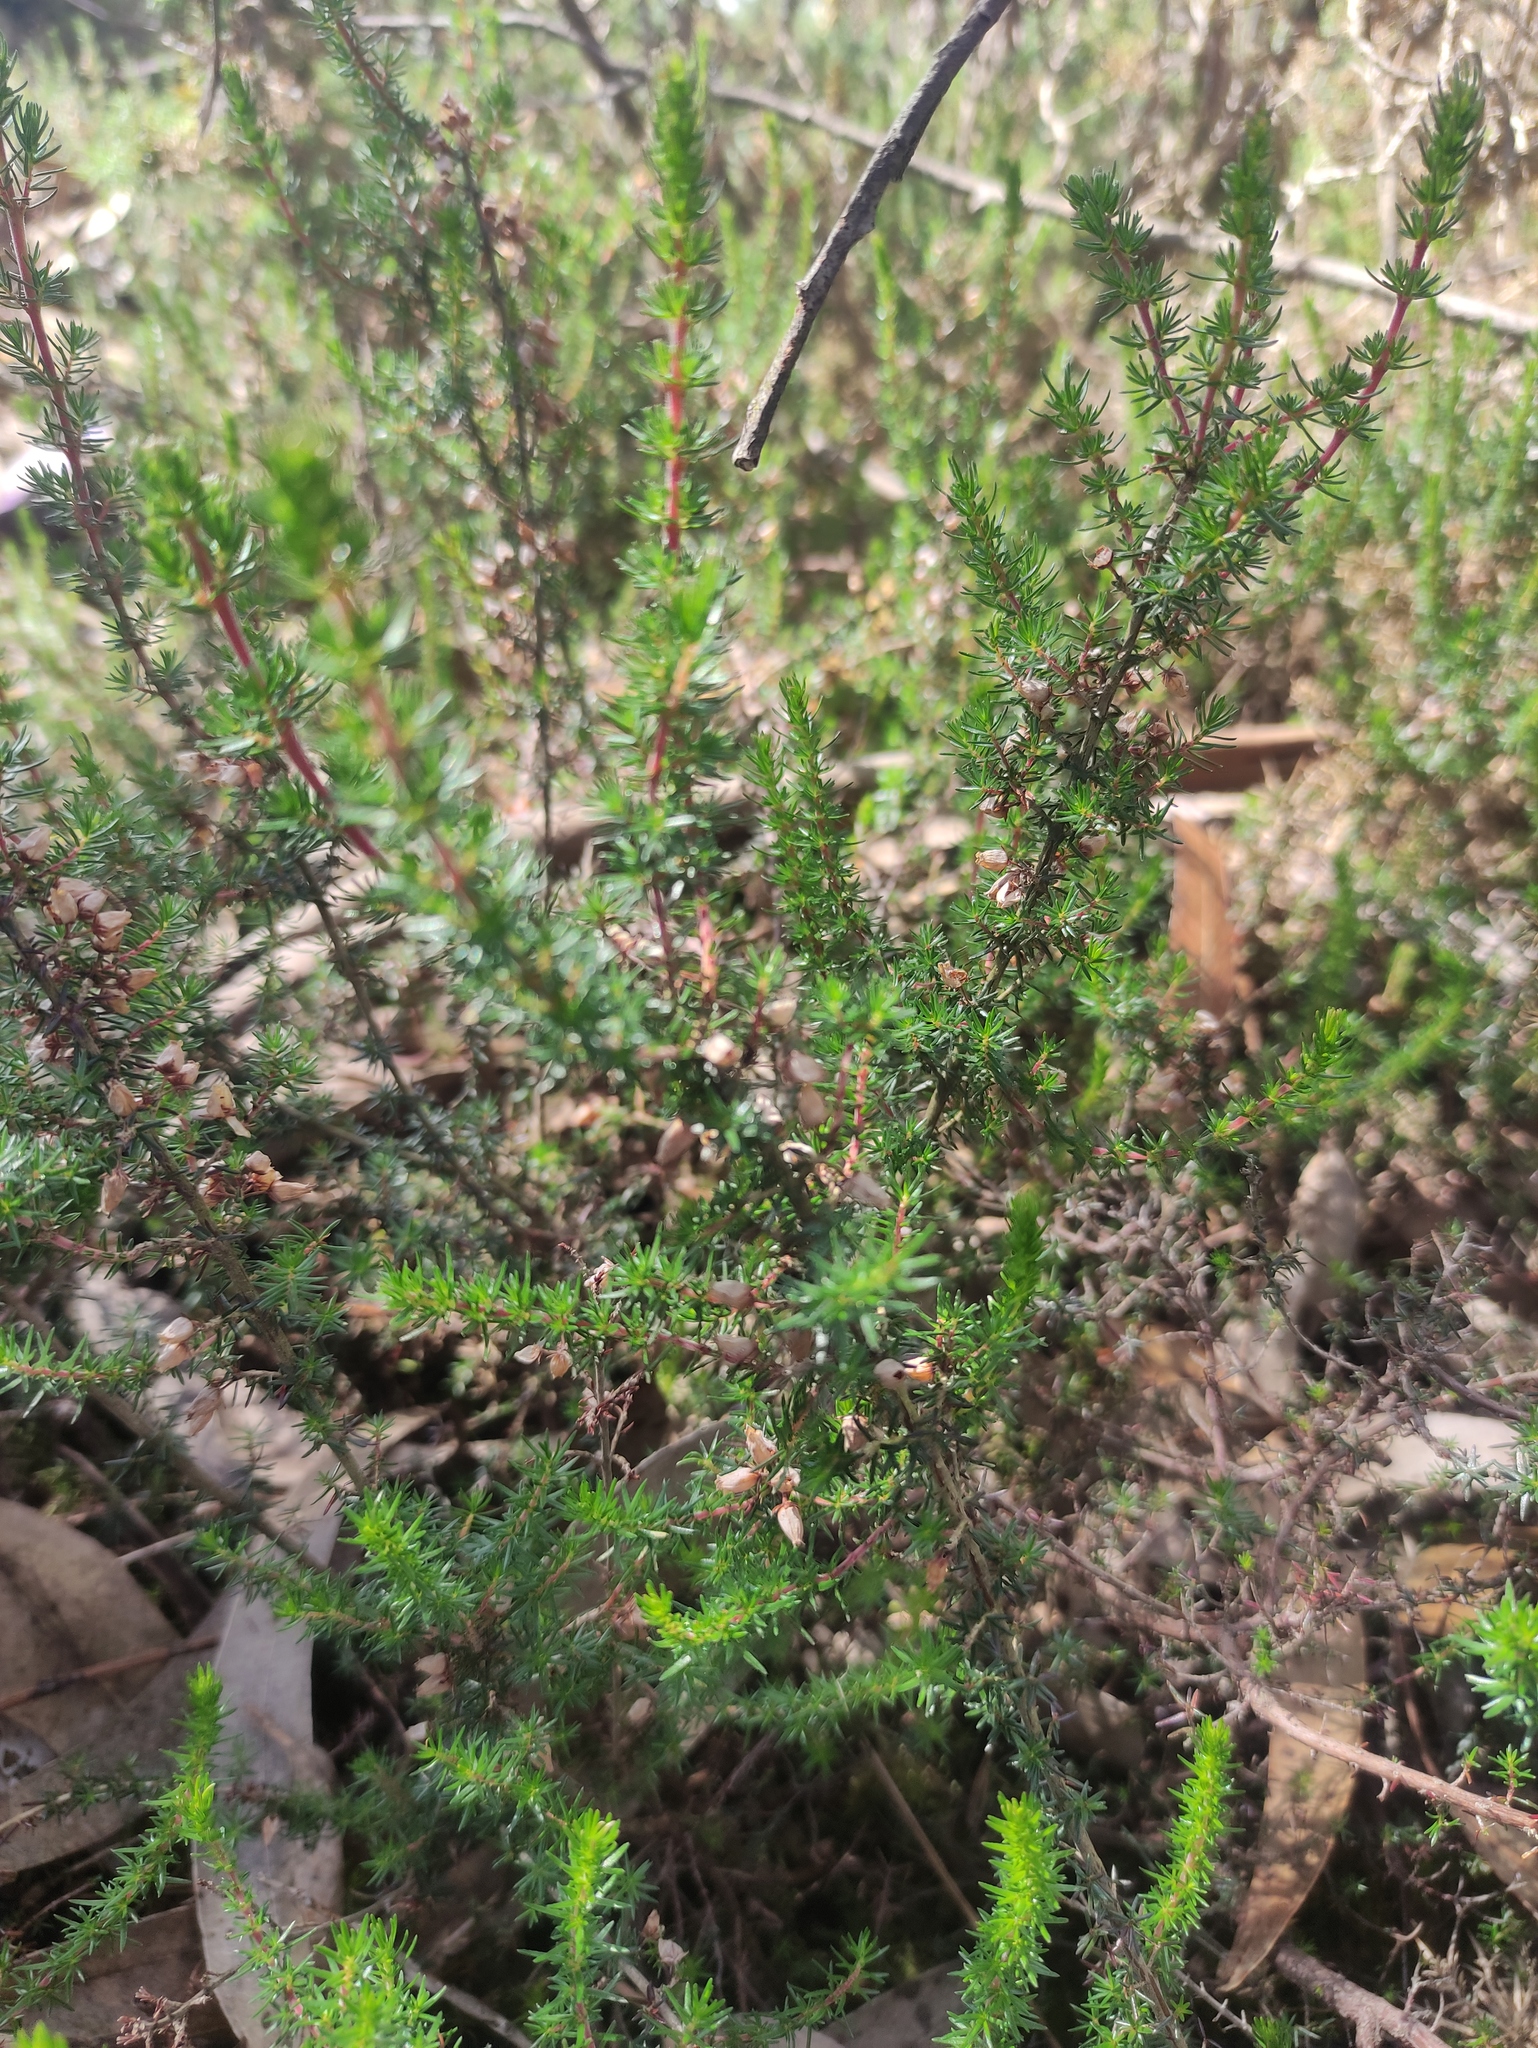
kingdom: Plantae
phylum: Tracheophyta
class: Magnoliopsida
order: Ericales
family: Ericaceae
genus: Erica
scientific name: Erica cinerea
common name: Bell heather
